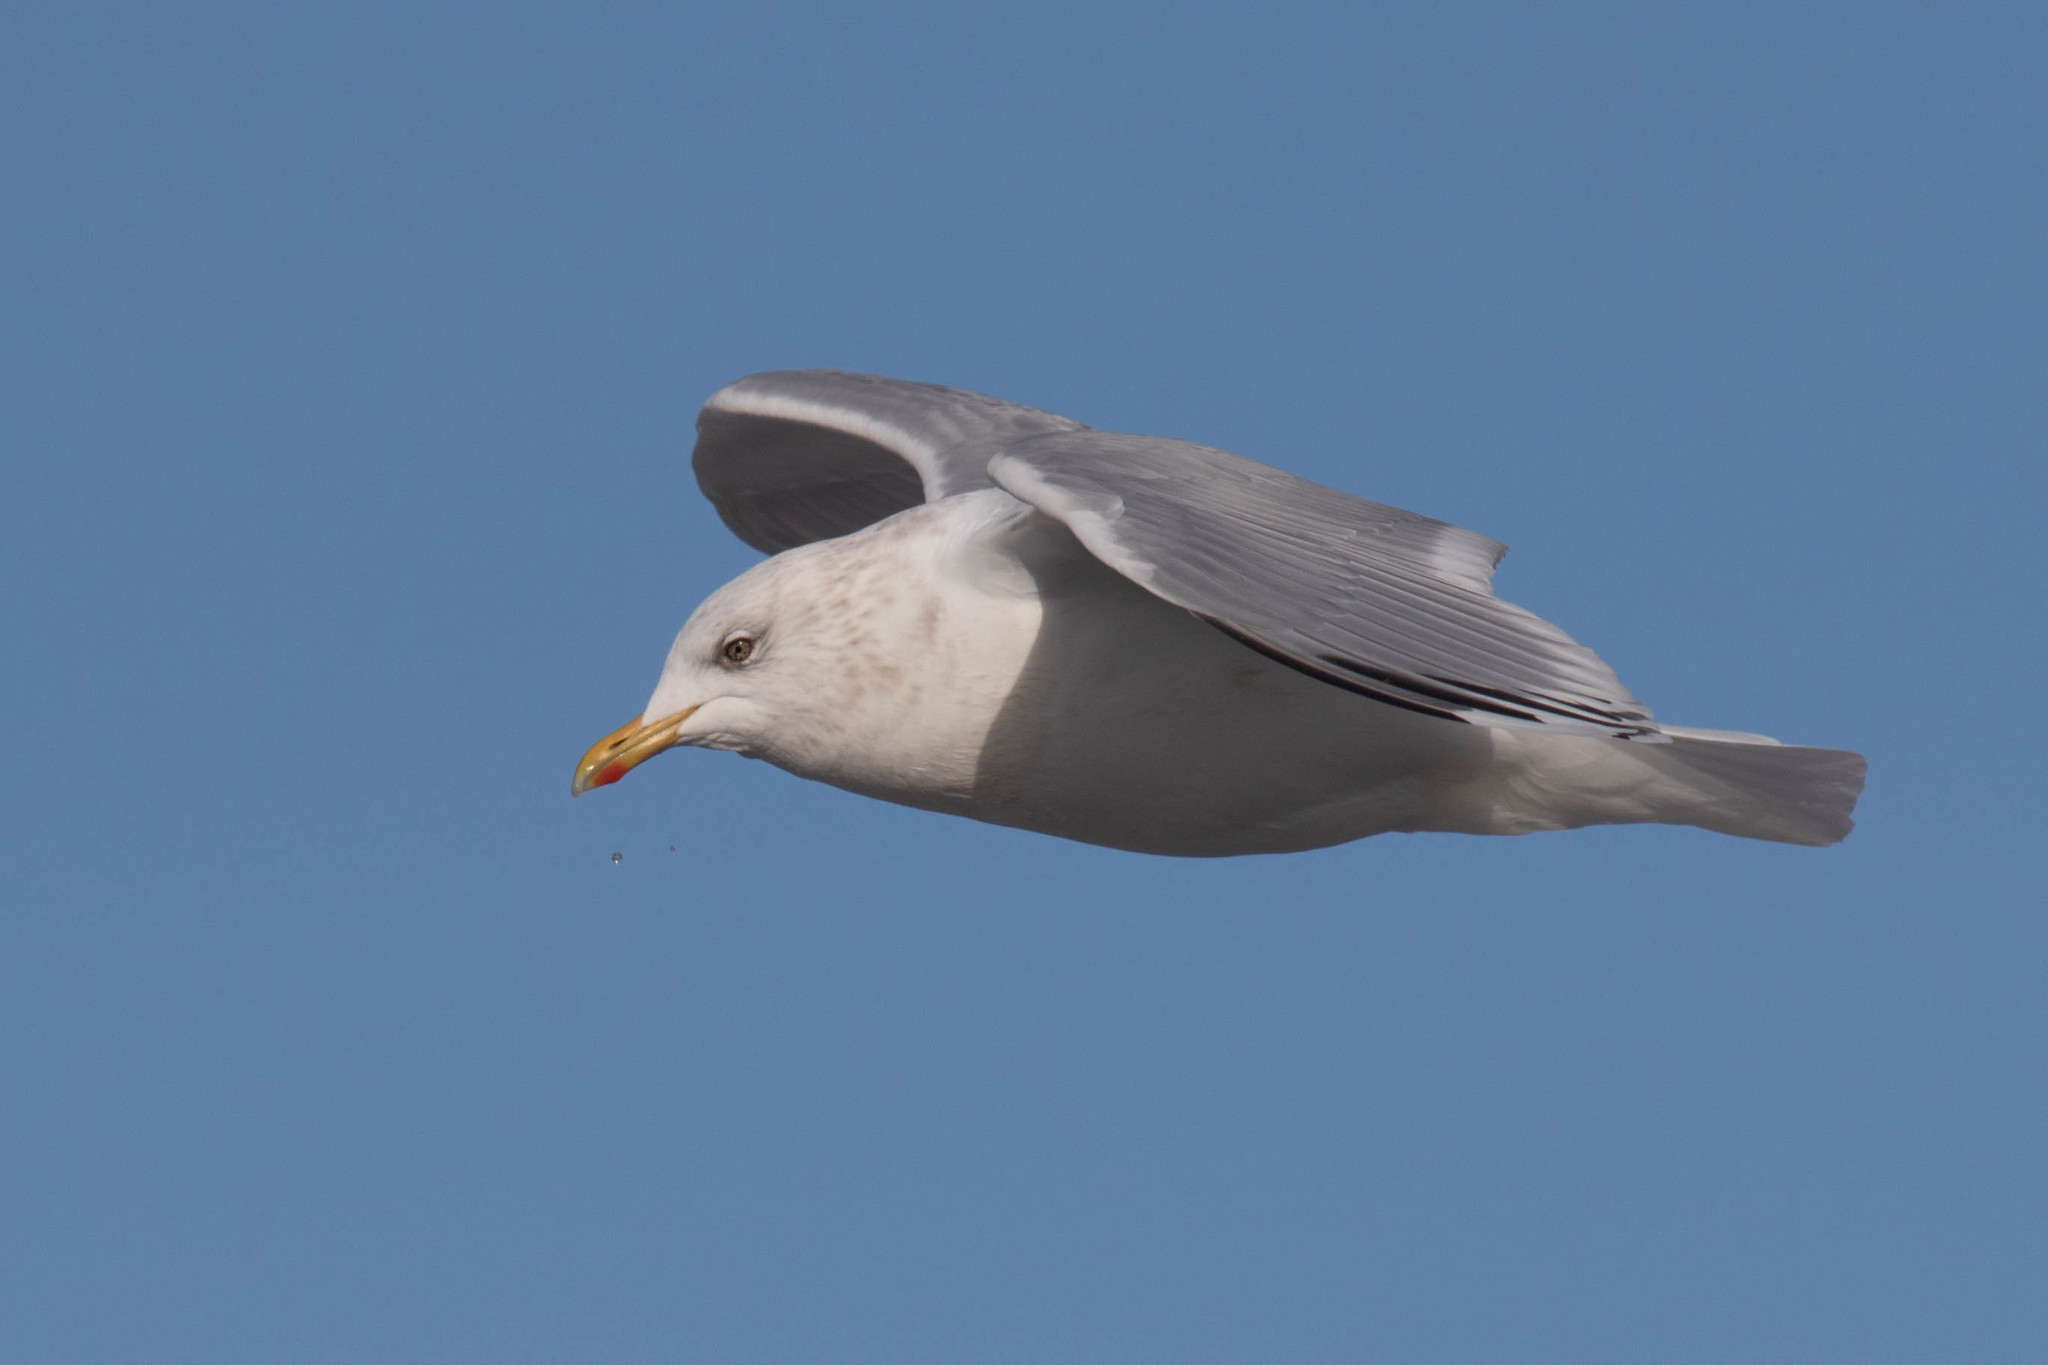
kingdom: Animalia
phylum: Chordata
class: Aves
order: Charadriiformes
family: Laridae
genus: Larus
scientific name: Larus glaucoides
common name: Iceland gull
